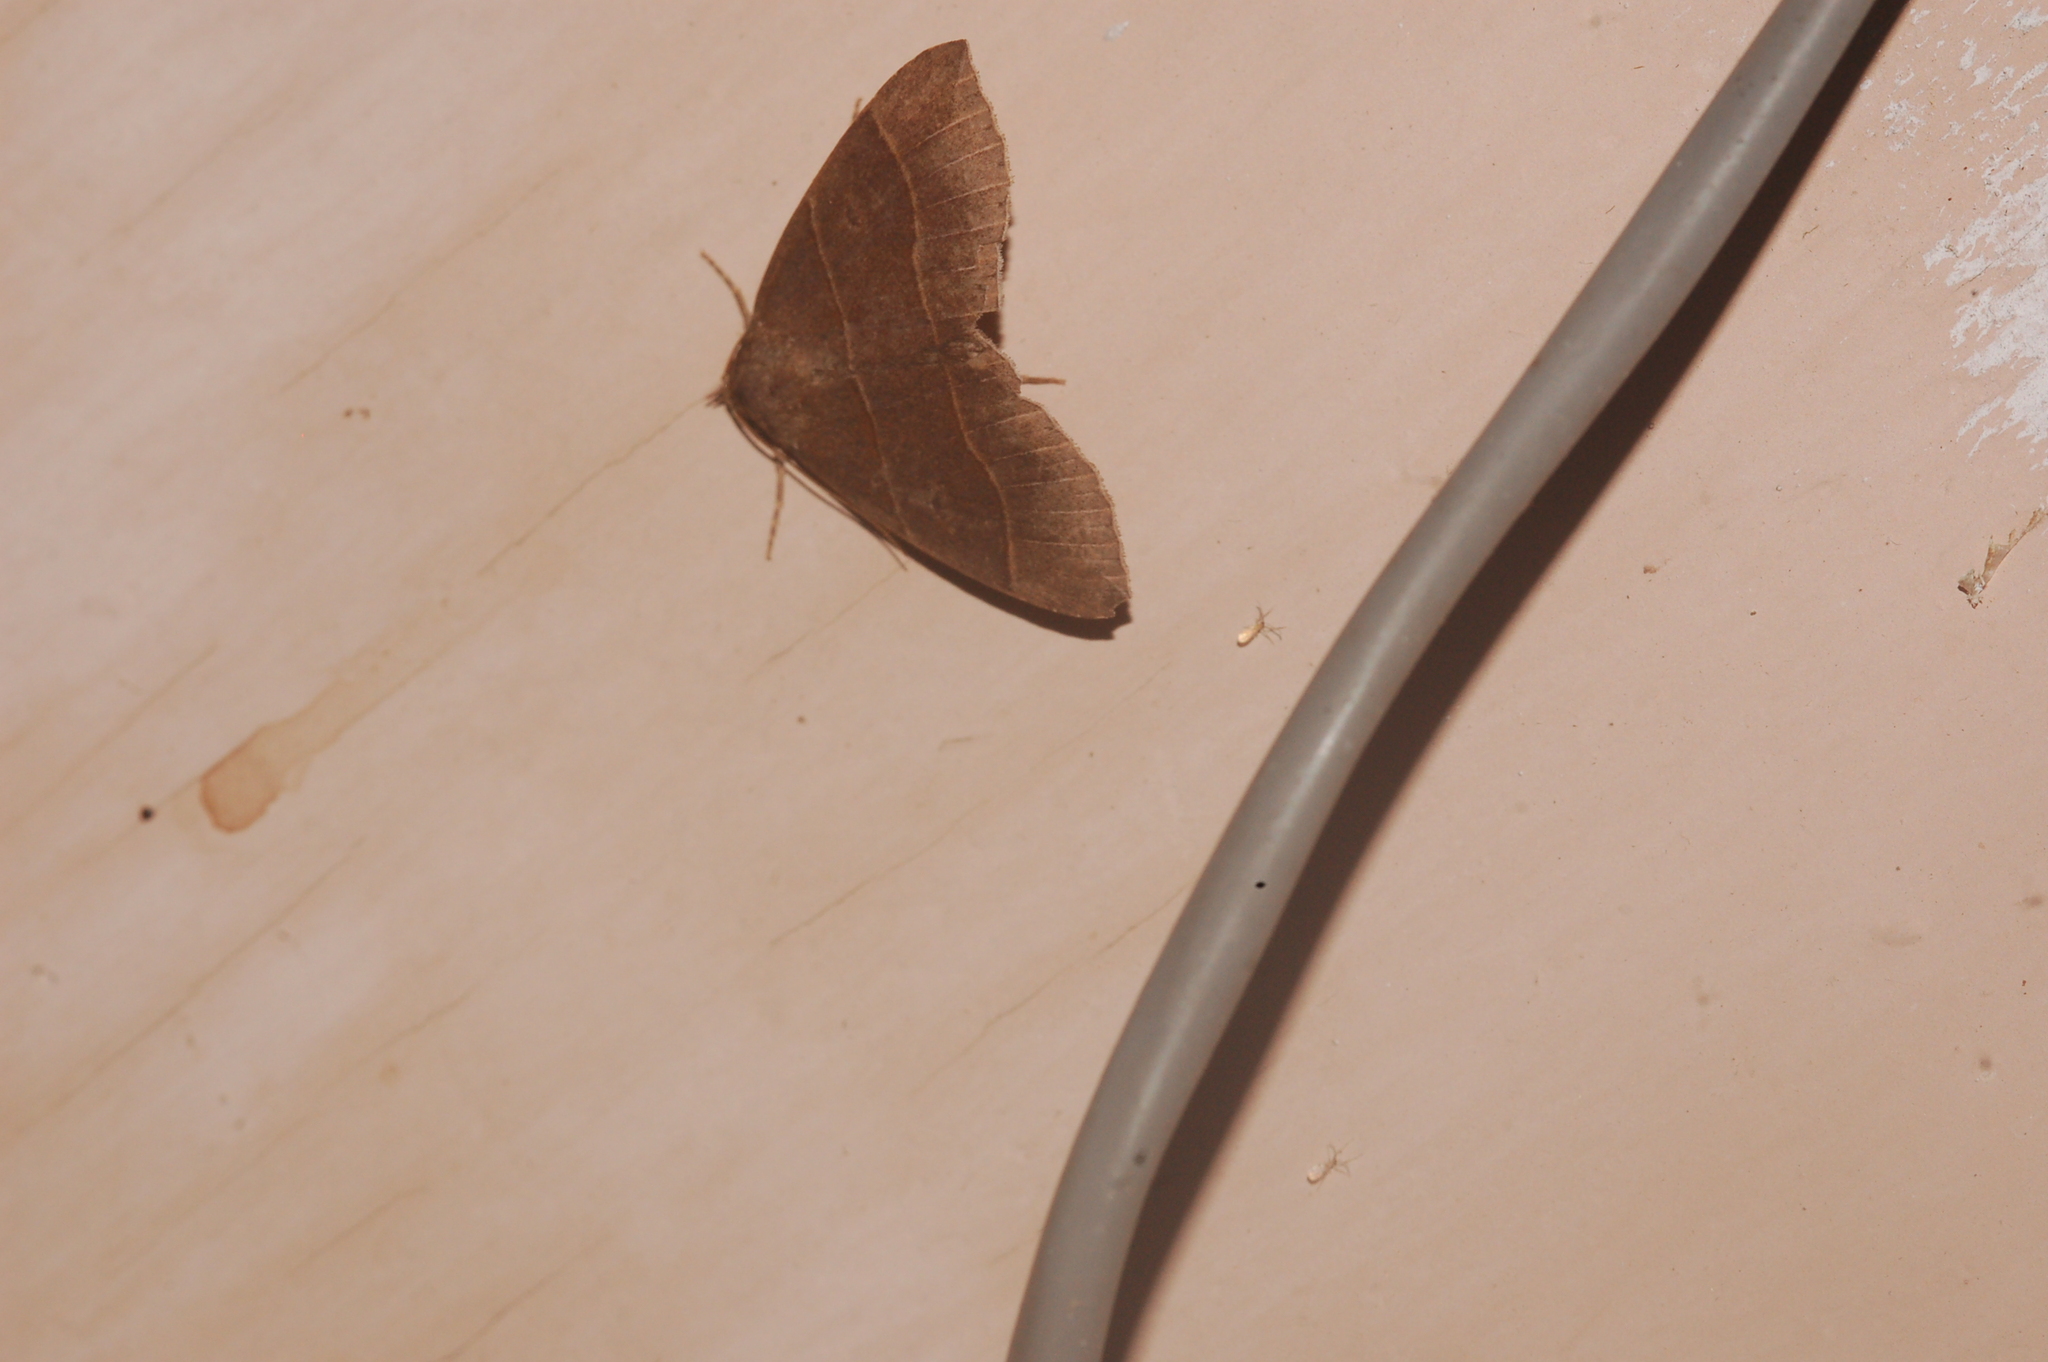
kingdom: Animalia
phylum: Arthropoda
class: Insecta
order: Lepidoptera
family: Erebidae
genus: Parallelia
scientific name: Parallelia bistriaris
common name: Maple looper moth
